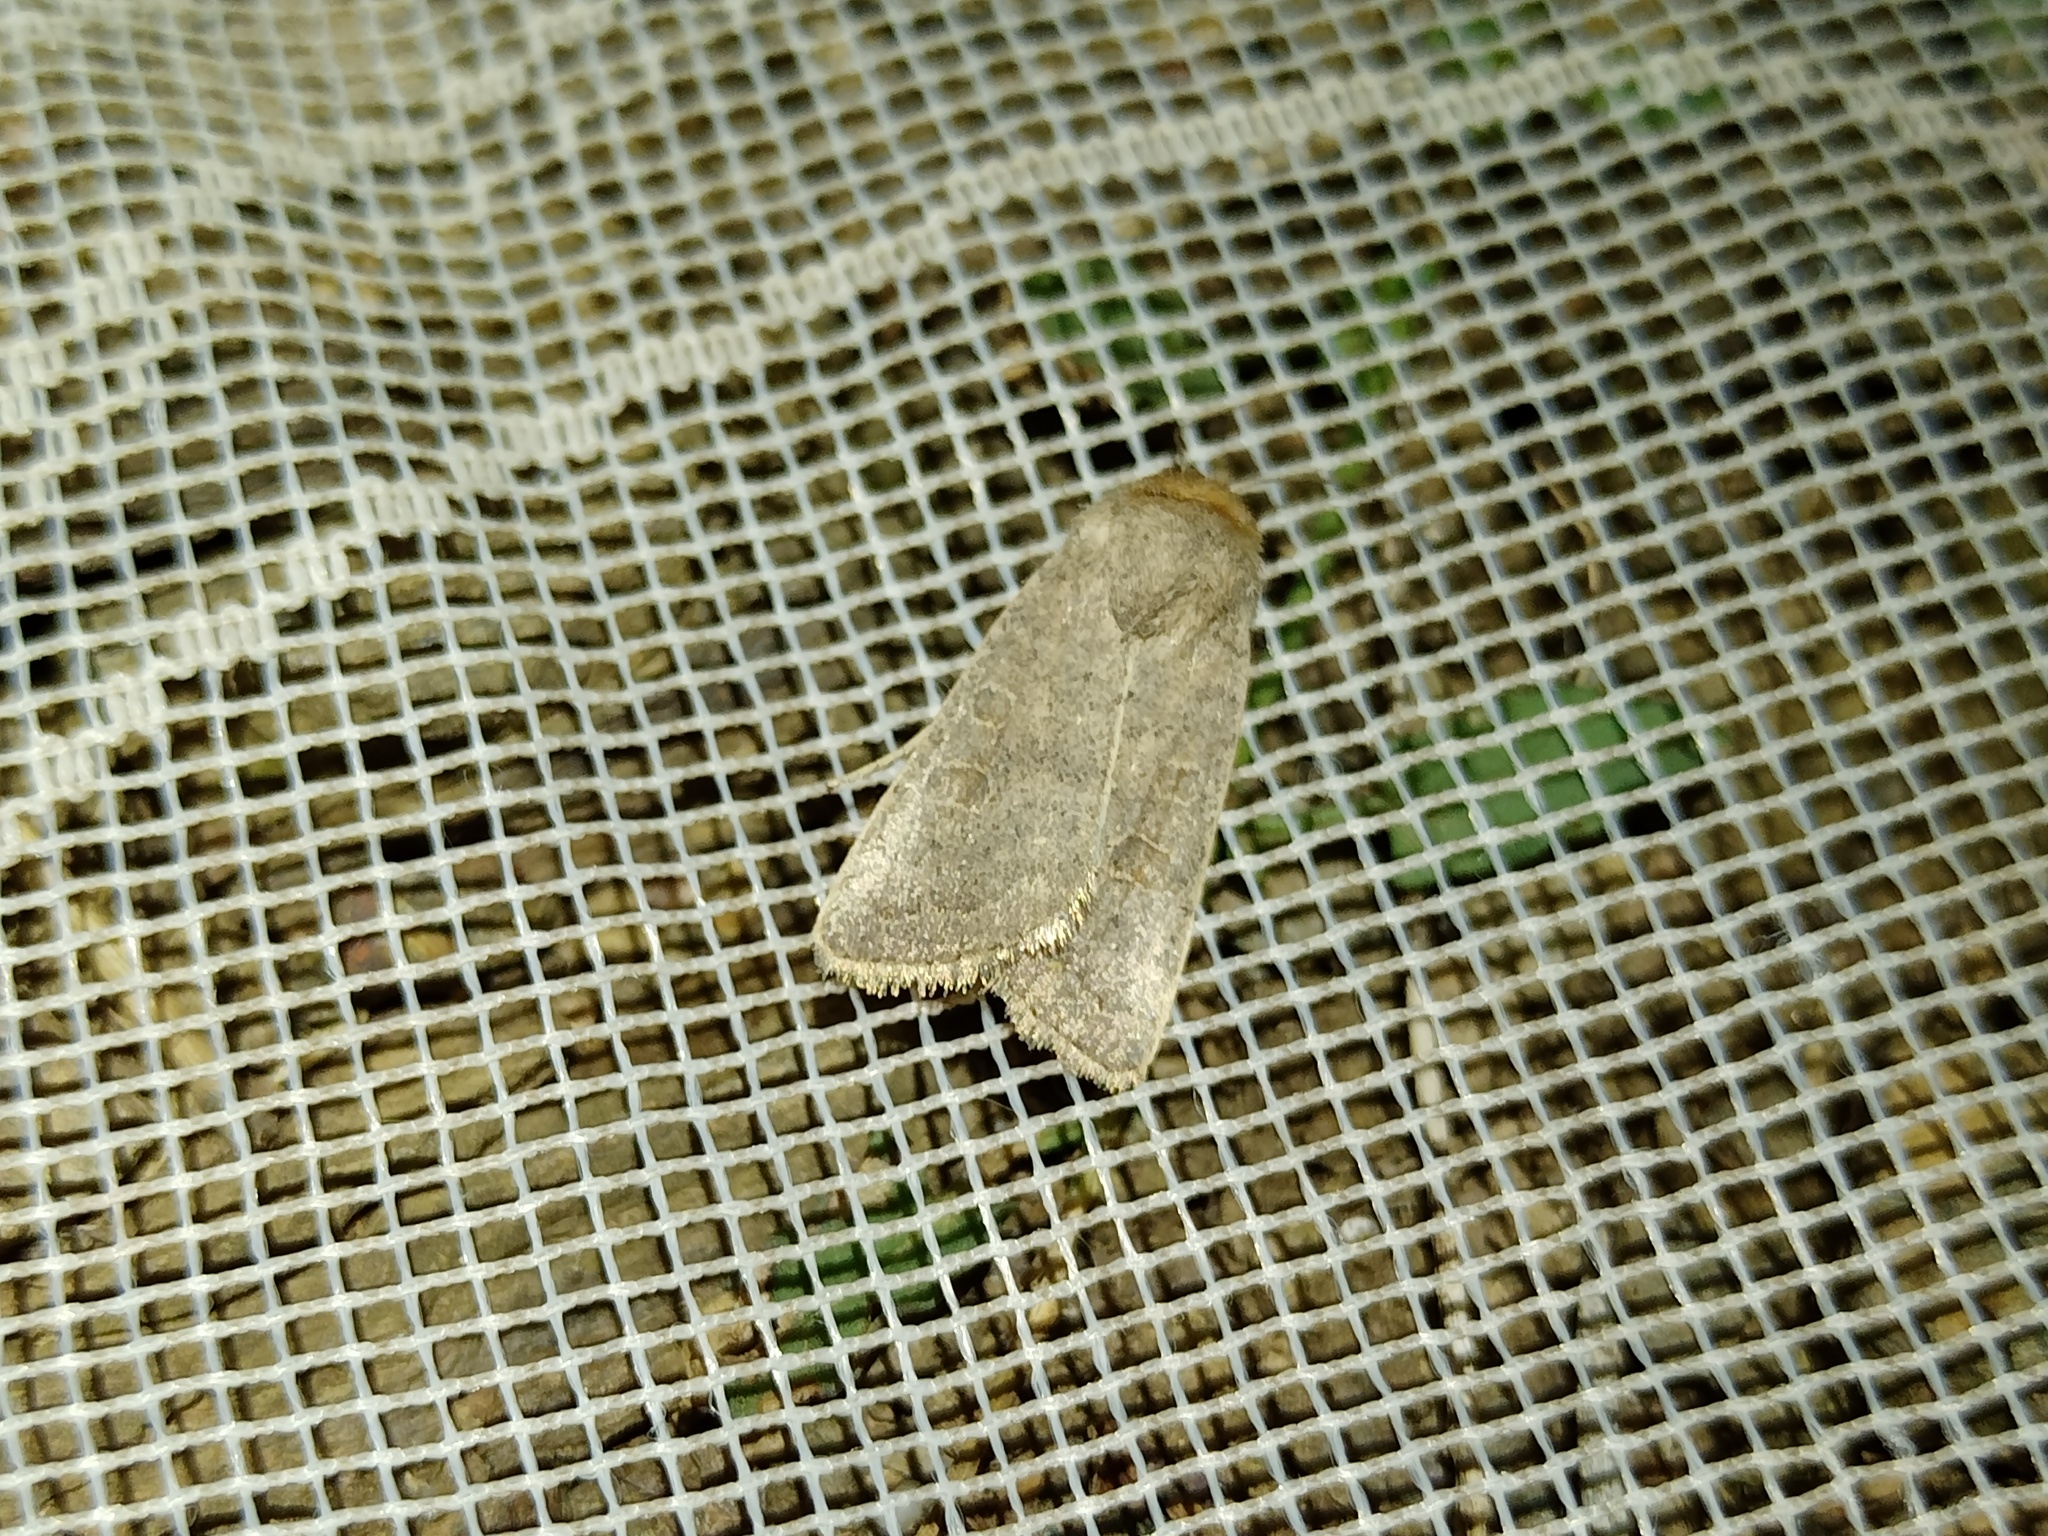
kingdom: Animalia
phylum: Arthropoda
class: Insecta
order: Lepidoptera
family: Noctuidae
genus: Hoplodrina
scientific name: Hoplodrina ambigua
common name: Vine's rustic
